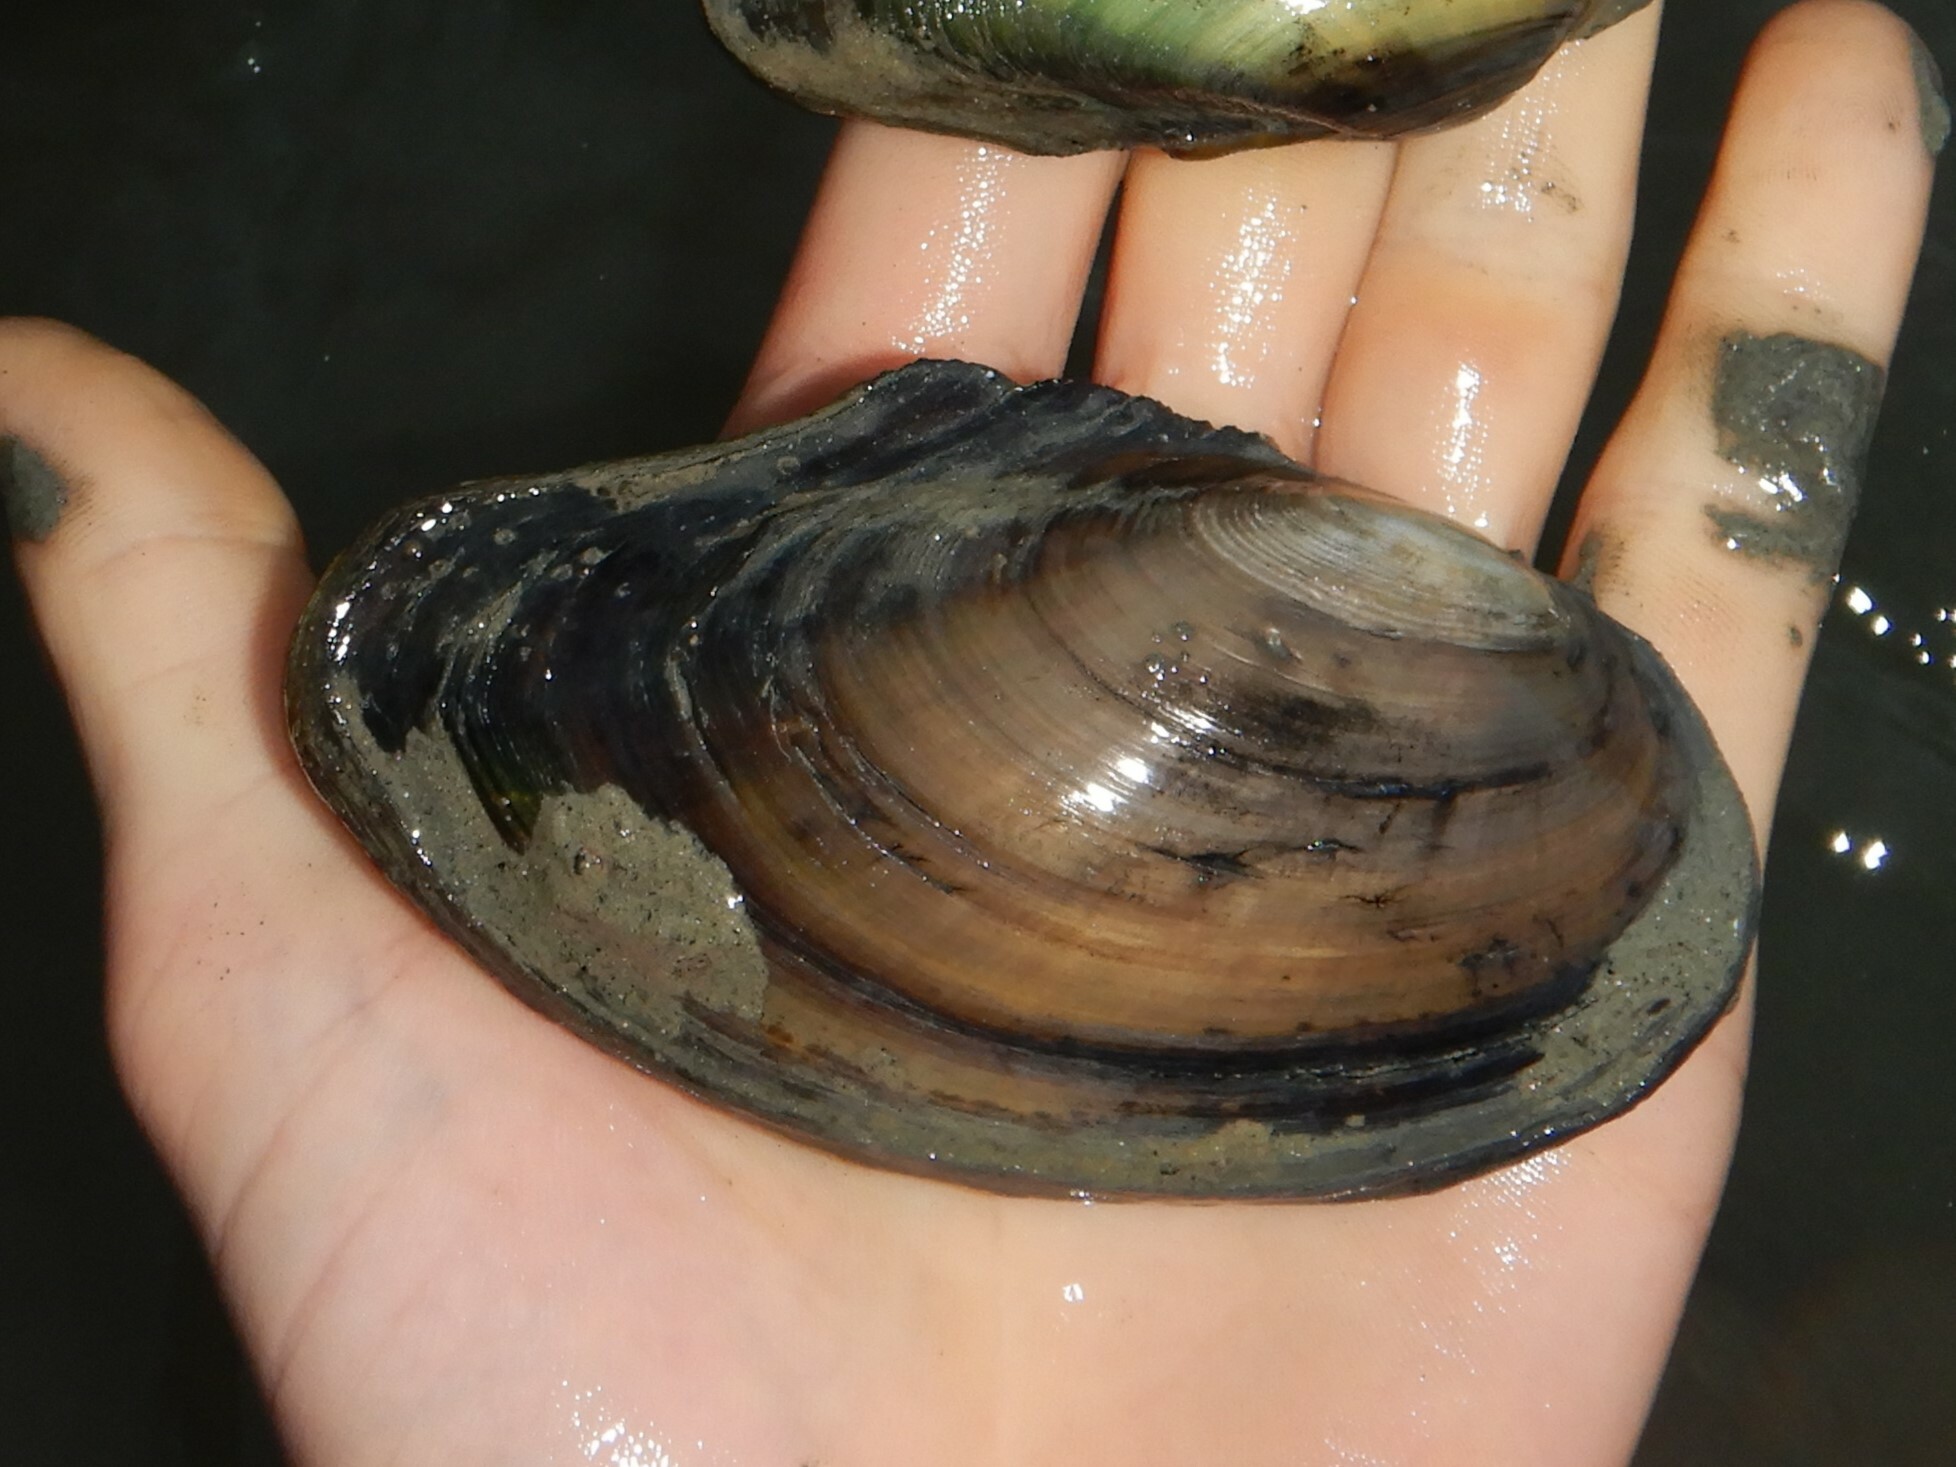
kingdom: Animalia
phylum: Mollusca
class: Bivalvia
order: Unionida
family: Unionidae
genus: Anodonta
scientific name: Anodonta anatina
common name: Duck mussel
